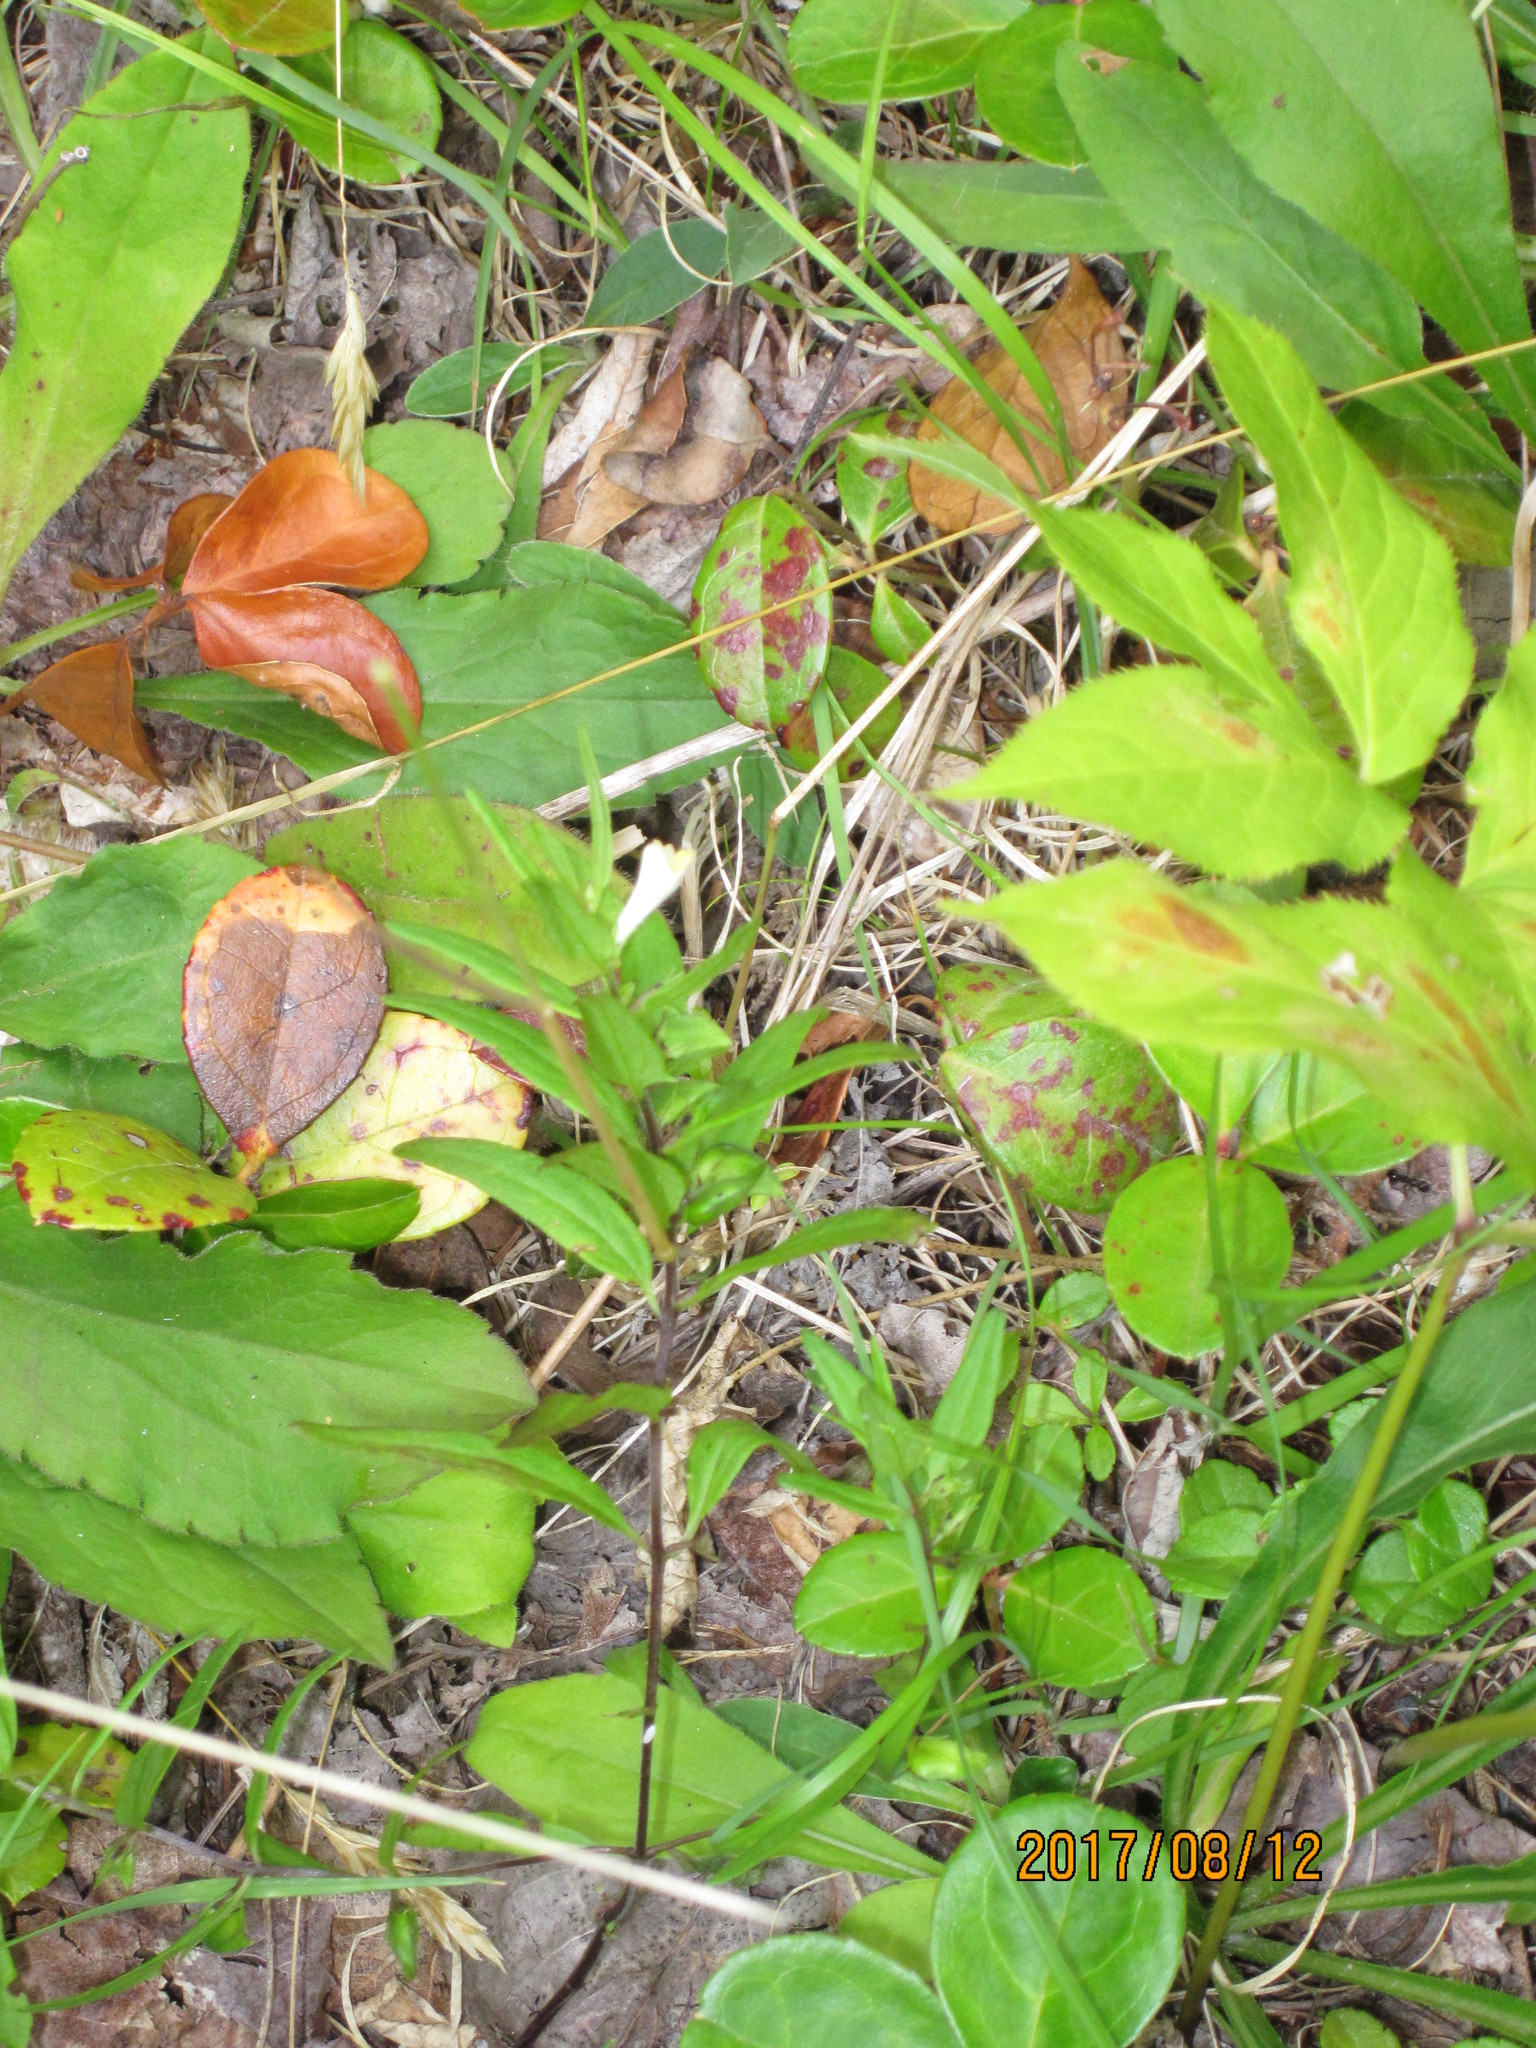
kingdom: Plantae
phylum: Tracheophyta
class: Magnoliopsida
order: Lamiales
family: Orobanchaceae
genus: Melampyrum
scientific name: Melampyrum lineare
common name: American cow-wheat
